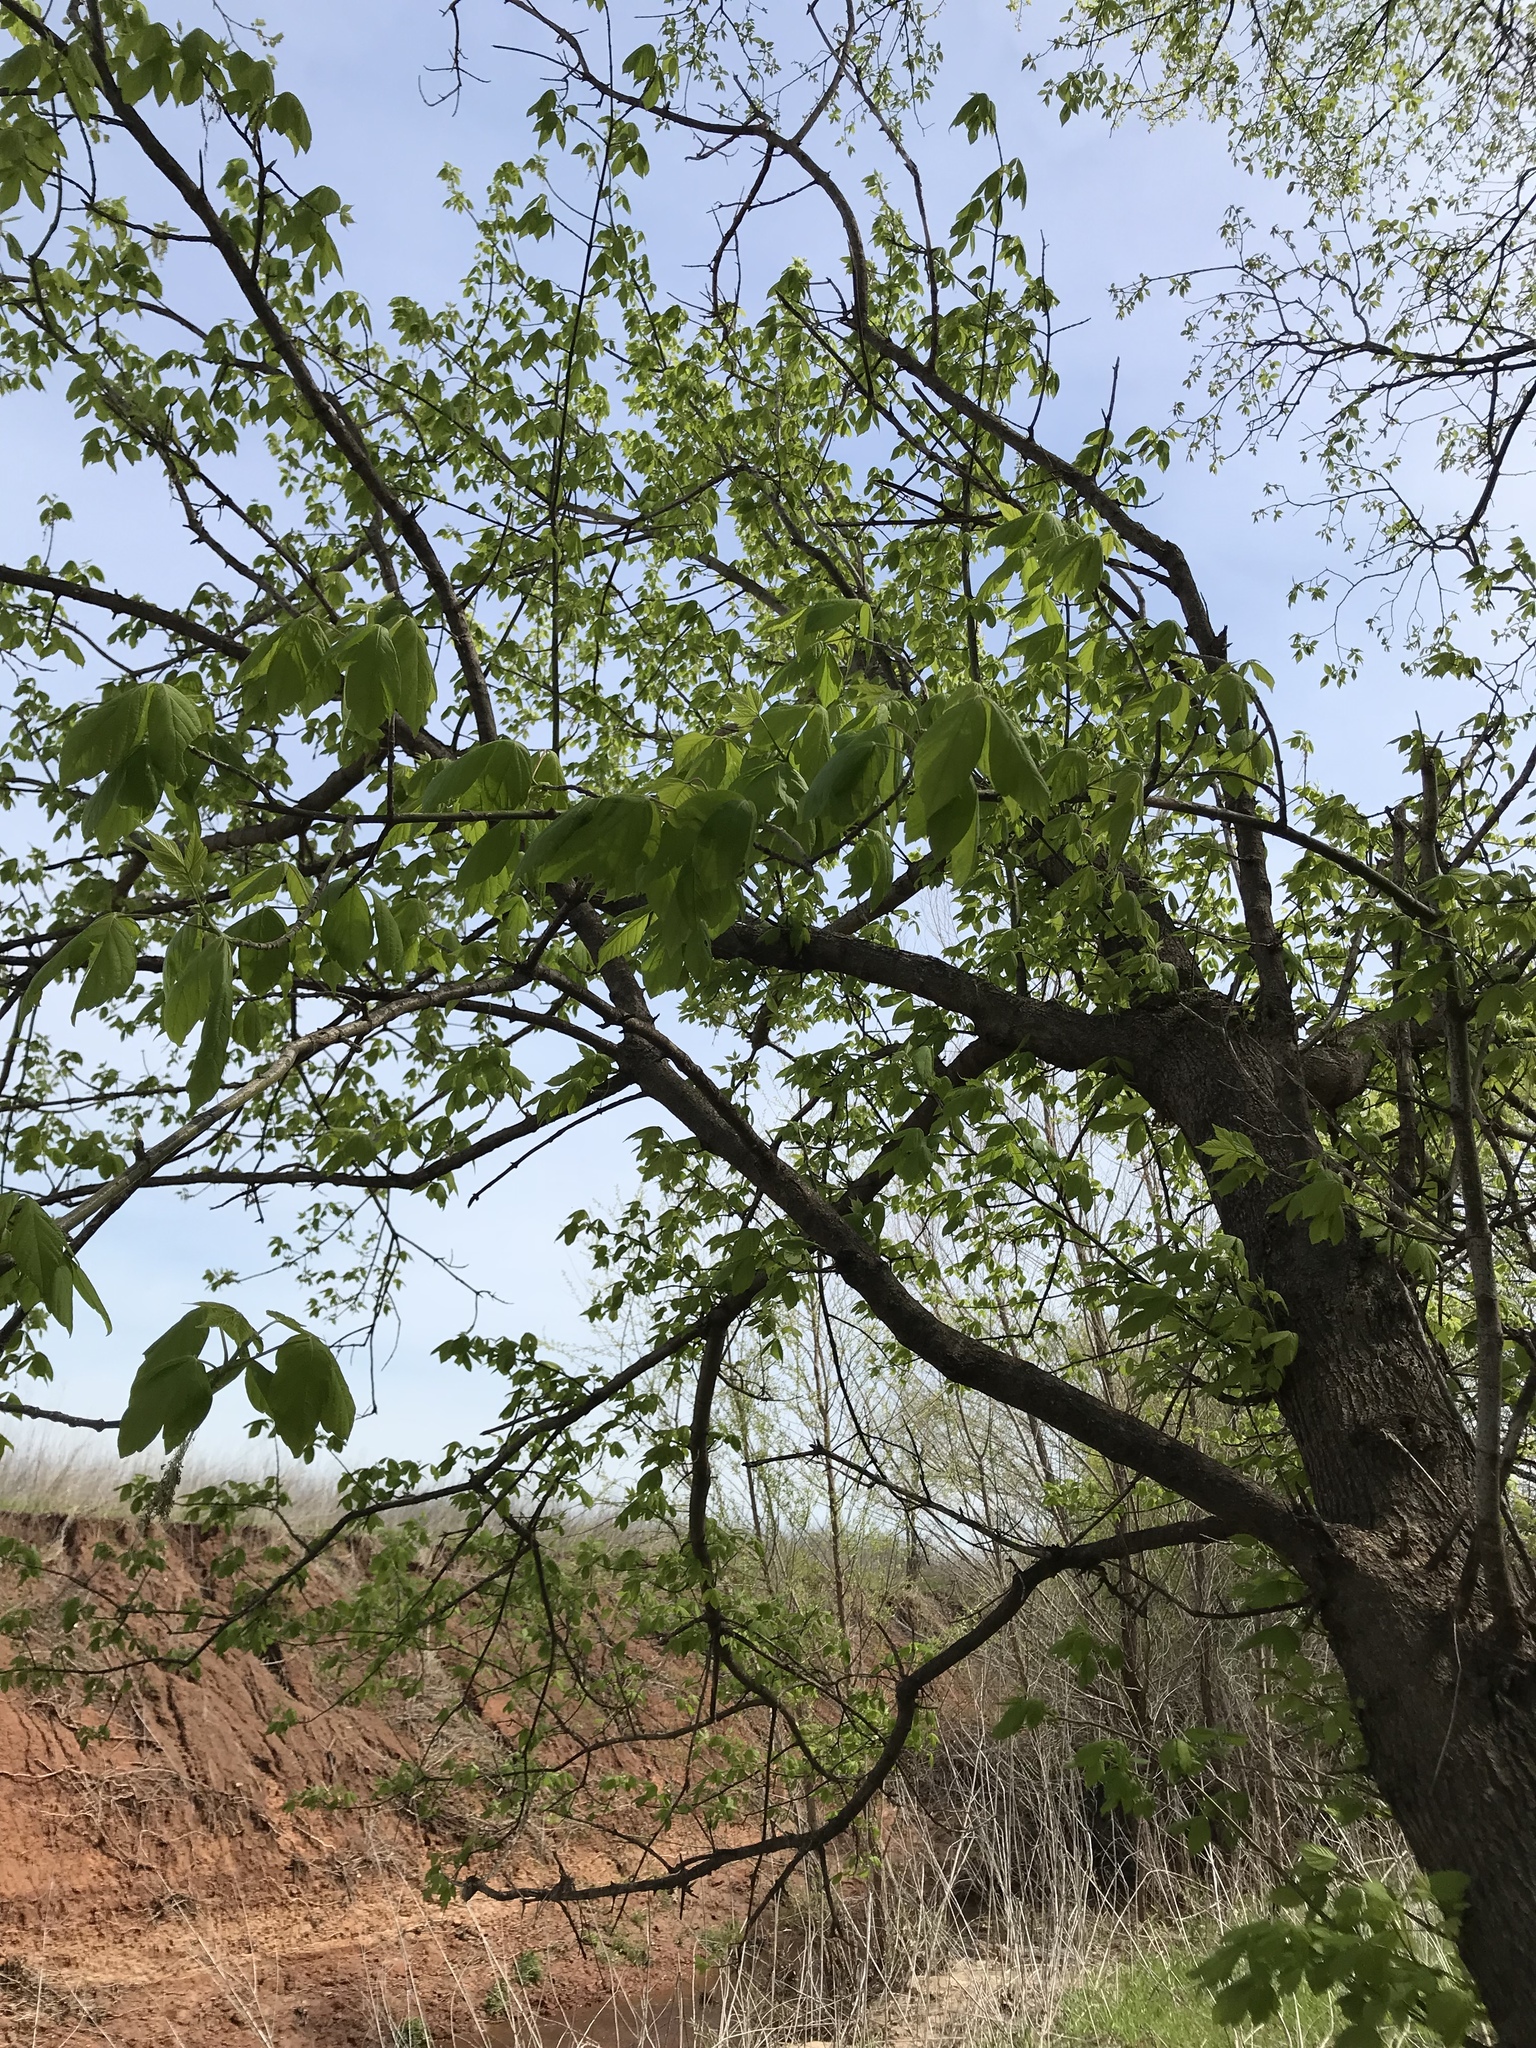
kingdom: Plantae
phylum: Tracheophyta
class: Magnoliopsida
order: Sapindales
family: Sapindaceae
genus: Acer
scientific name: Acer negundo
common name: Ashleaf maple
